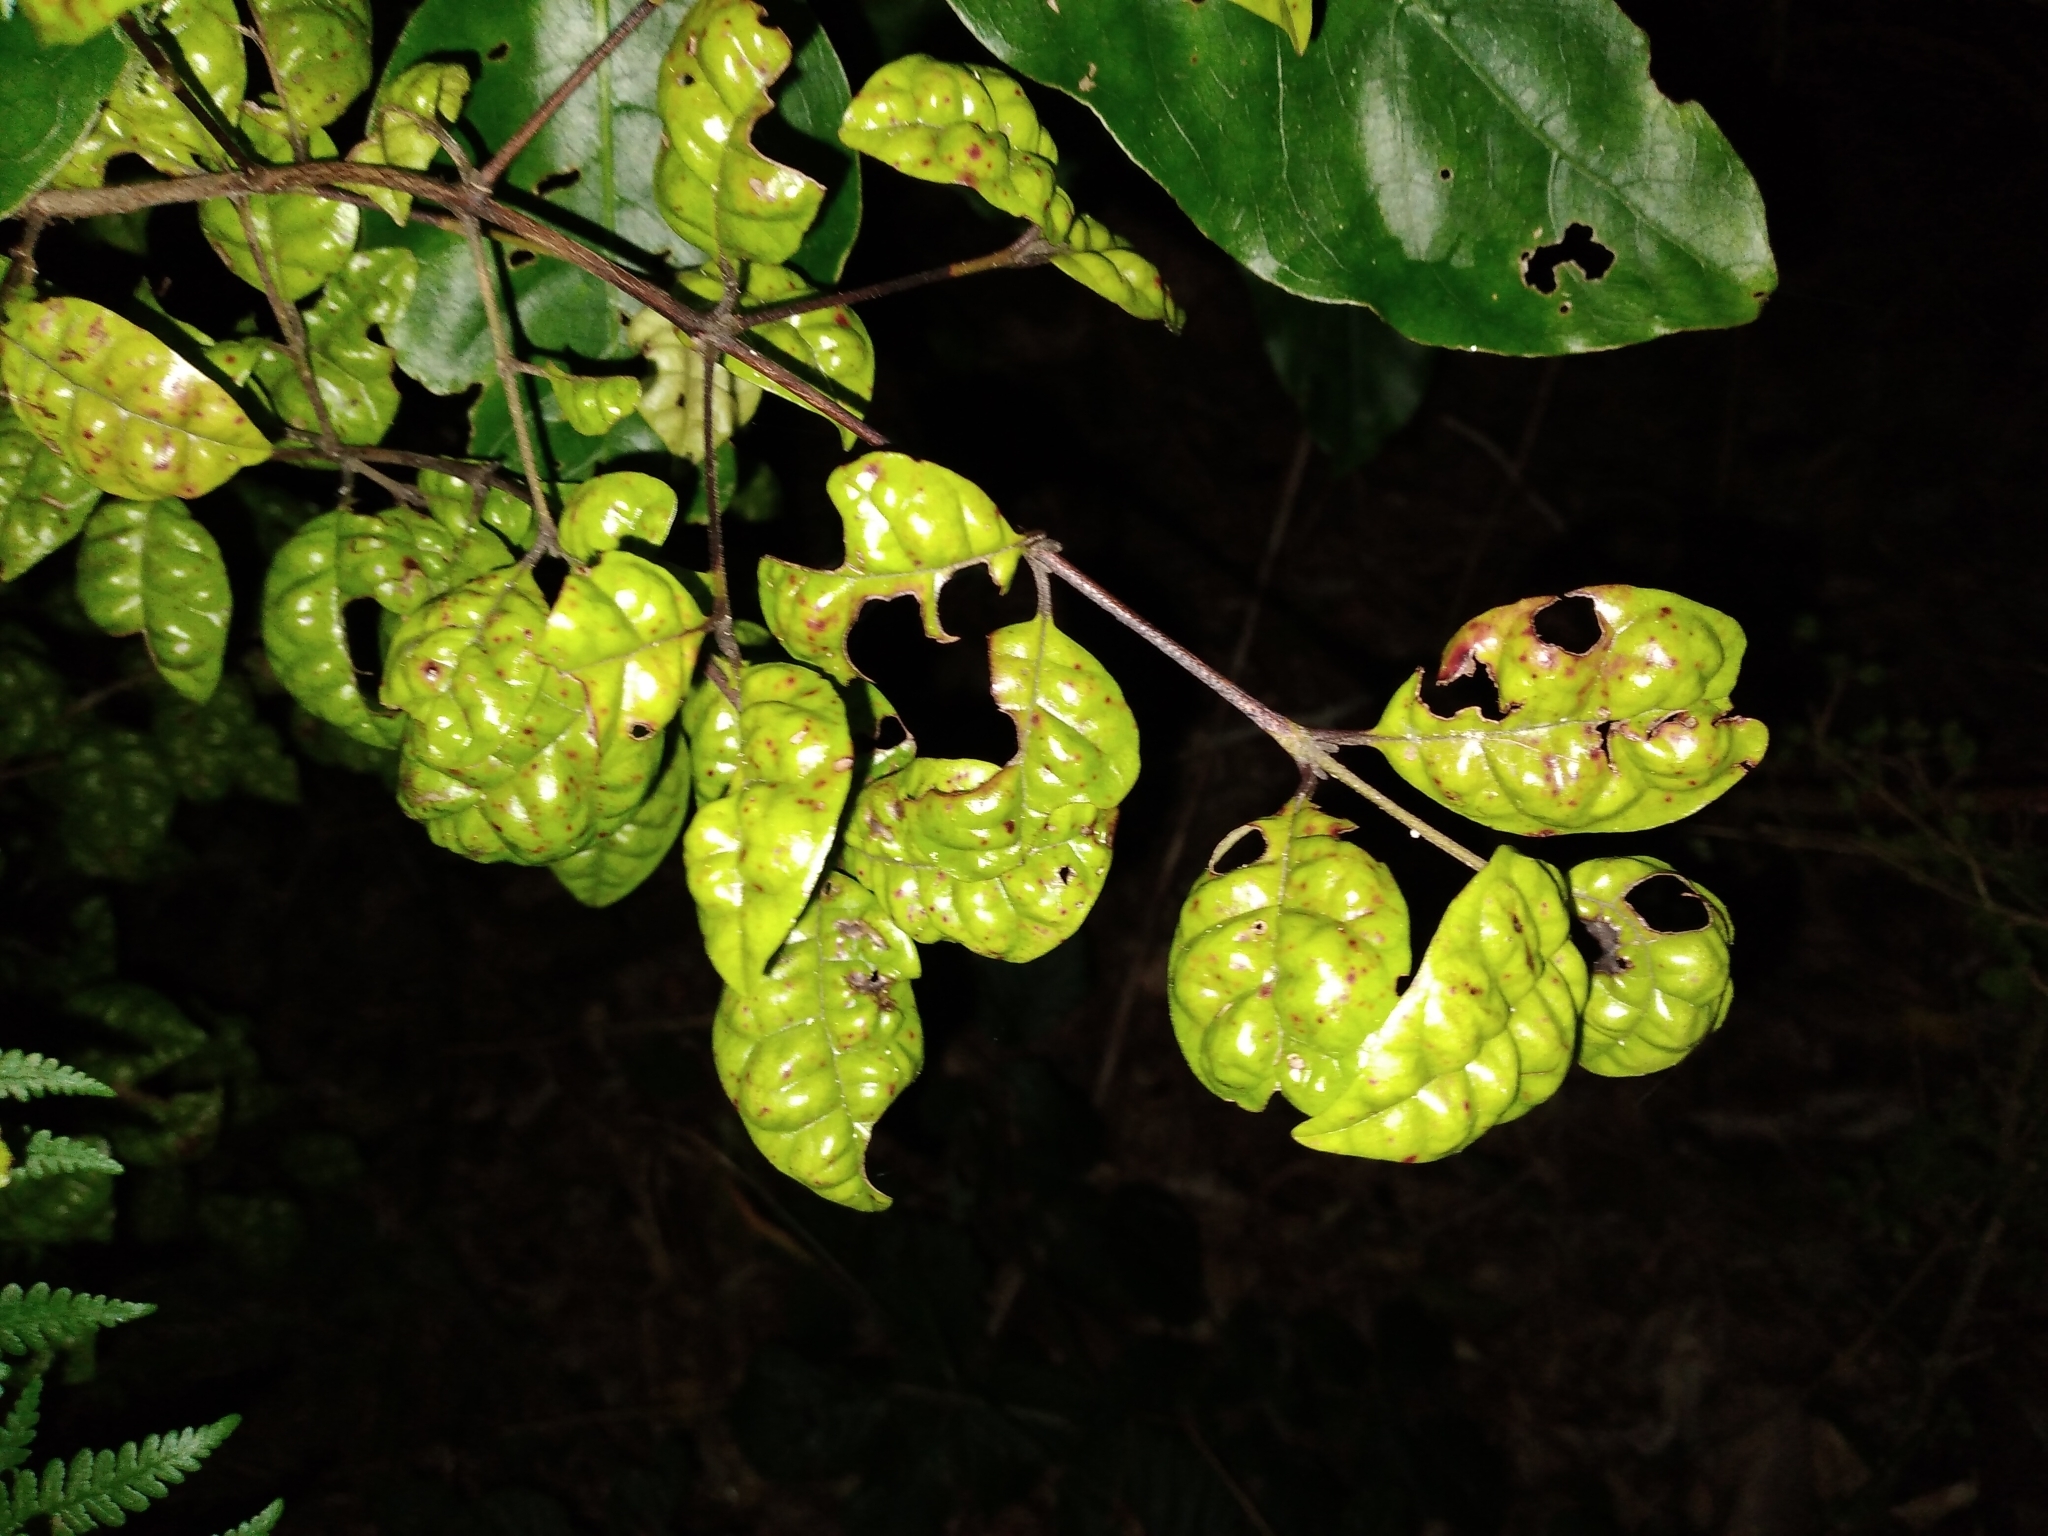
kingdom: Plantae
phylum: Tracheophyta
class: Magnoliopsida
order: Myrtales
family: Myrtaceae
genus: Lophomyrtus
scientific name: Lophomyrtus bullata
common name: Rama rama
